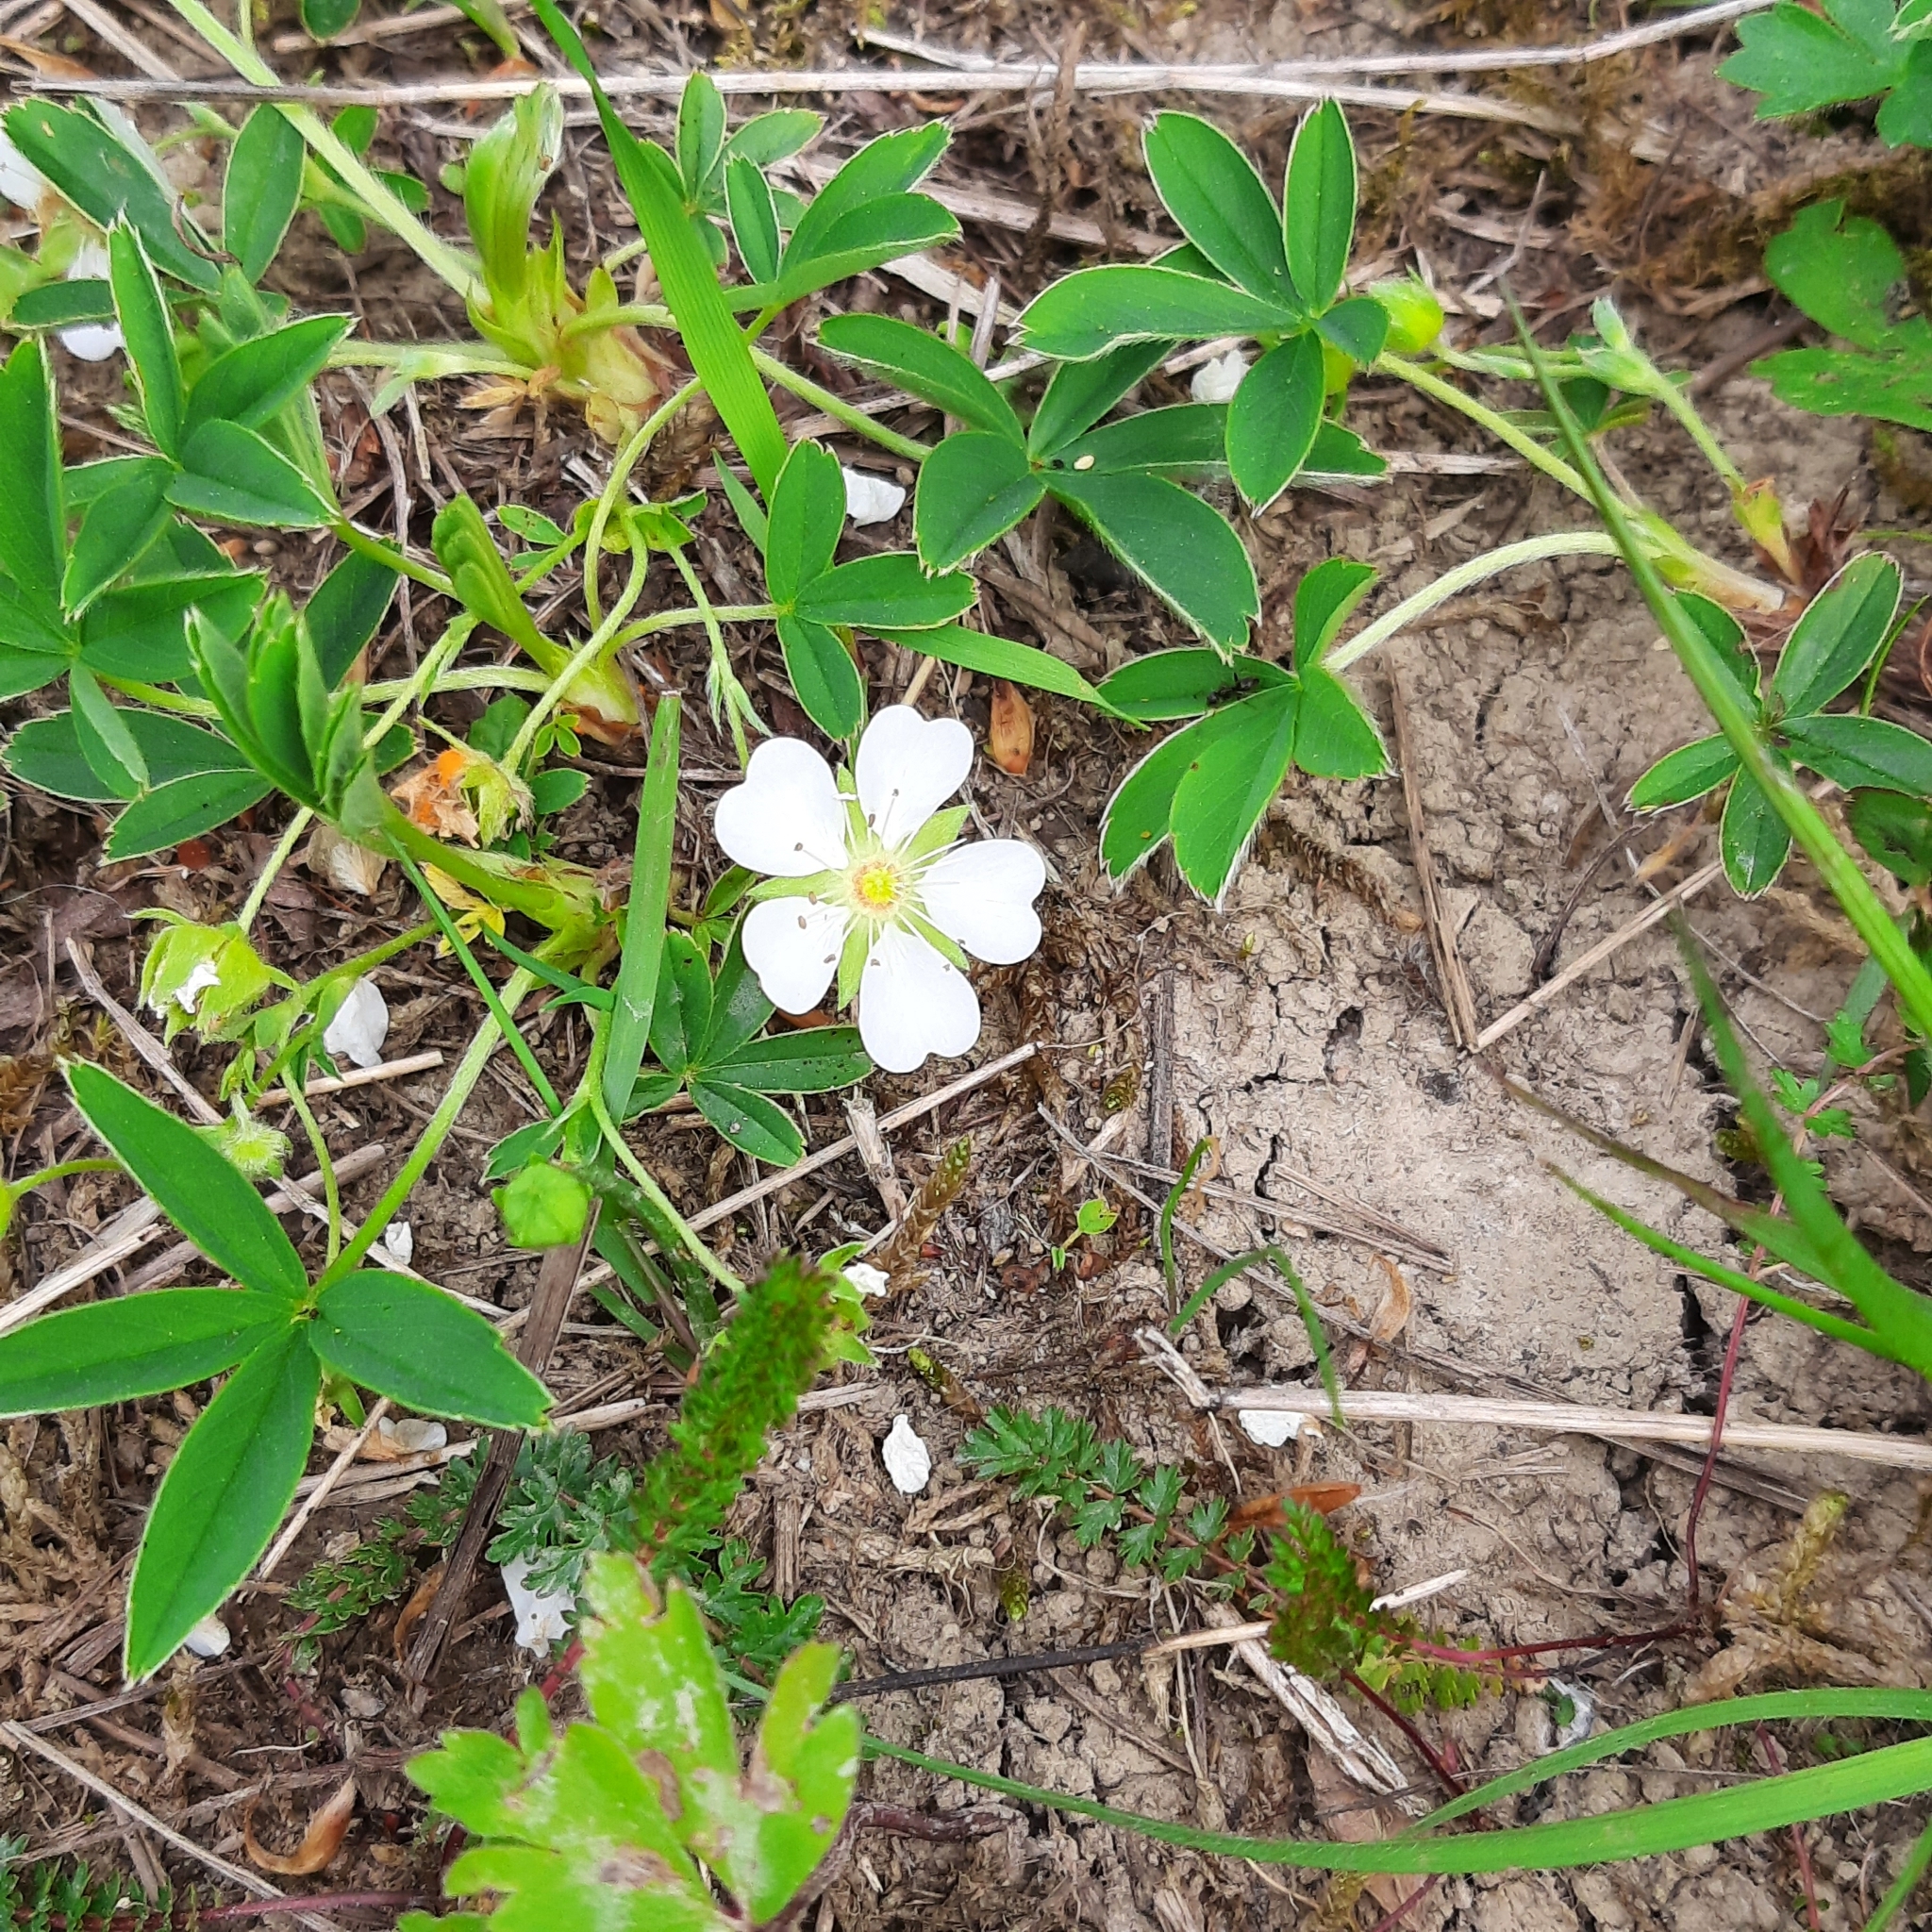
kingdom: Plantae
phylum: Tracheophyta
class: Magnoliopsida
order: Rosales
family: Rosaceae
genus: Potentilla
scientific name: Potentilla alba
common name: White cinquefoil
